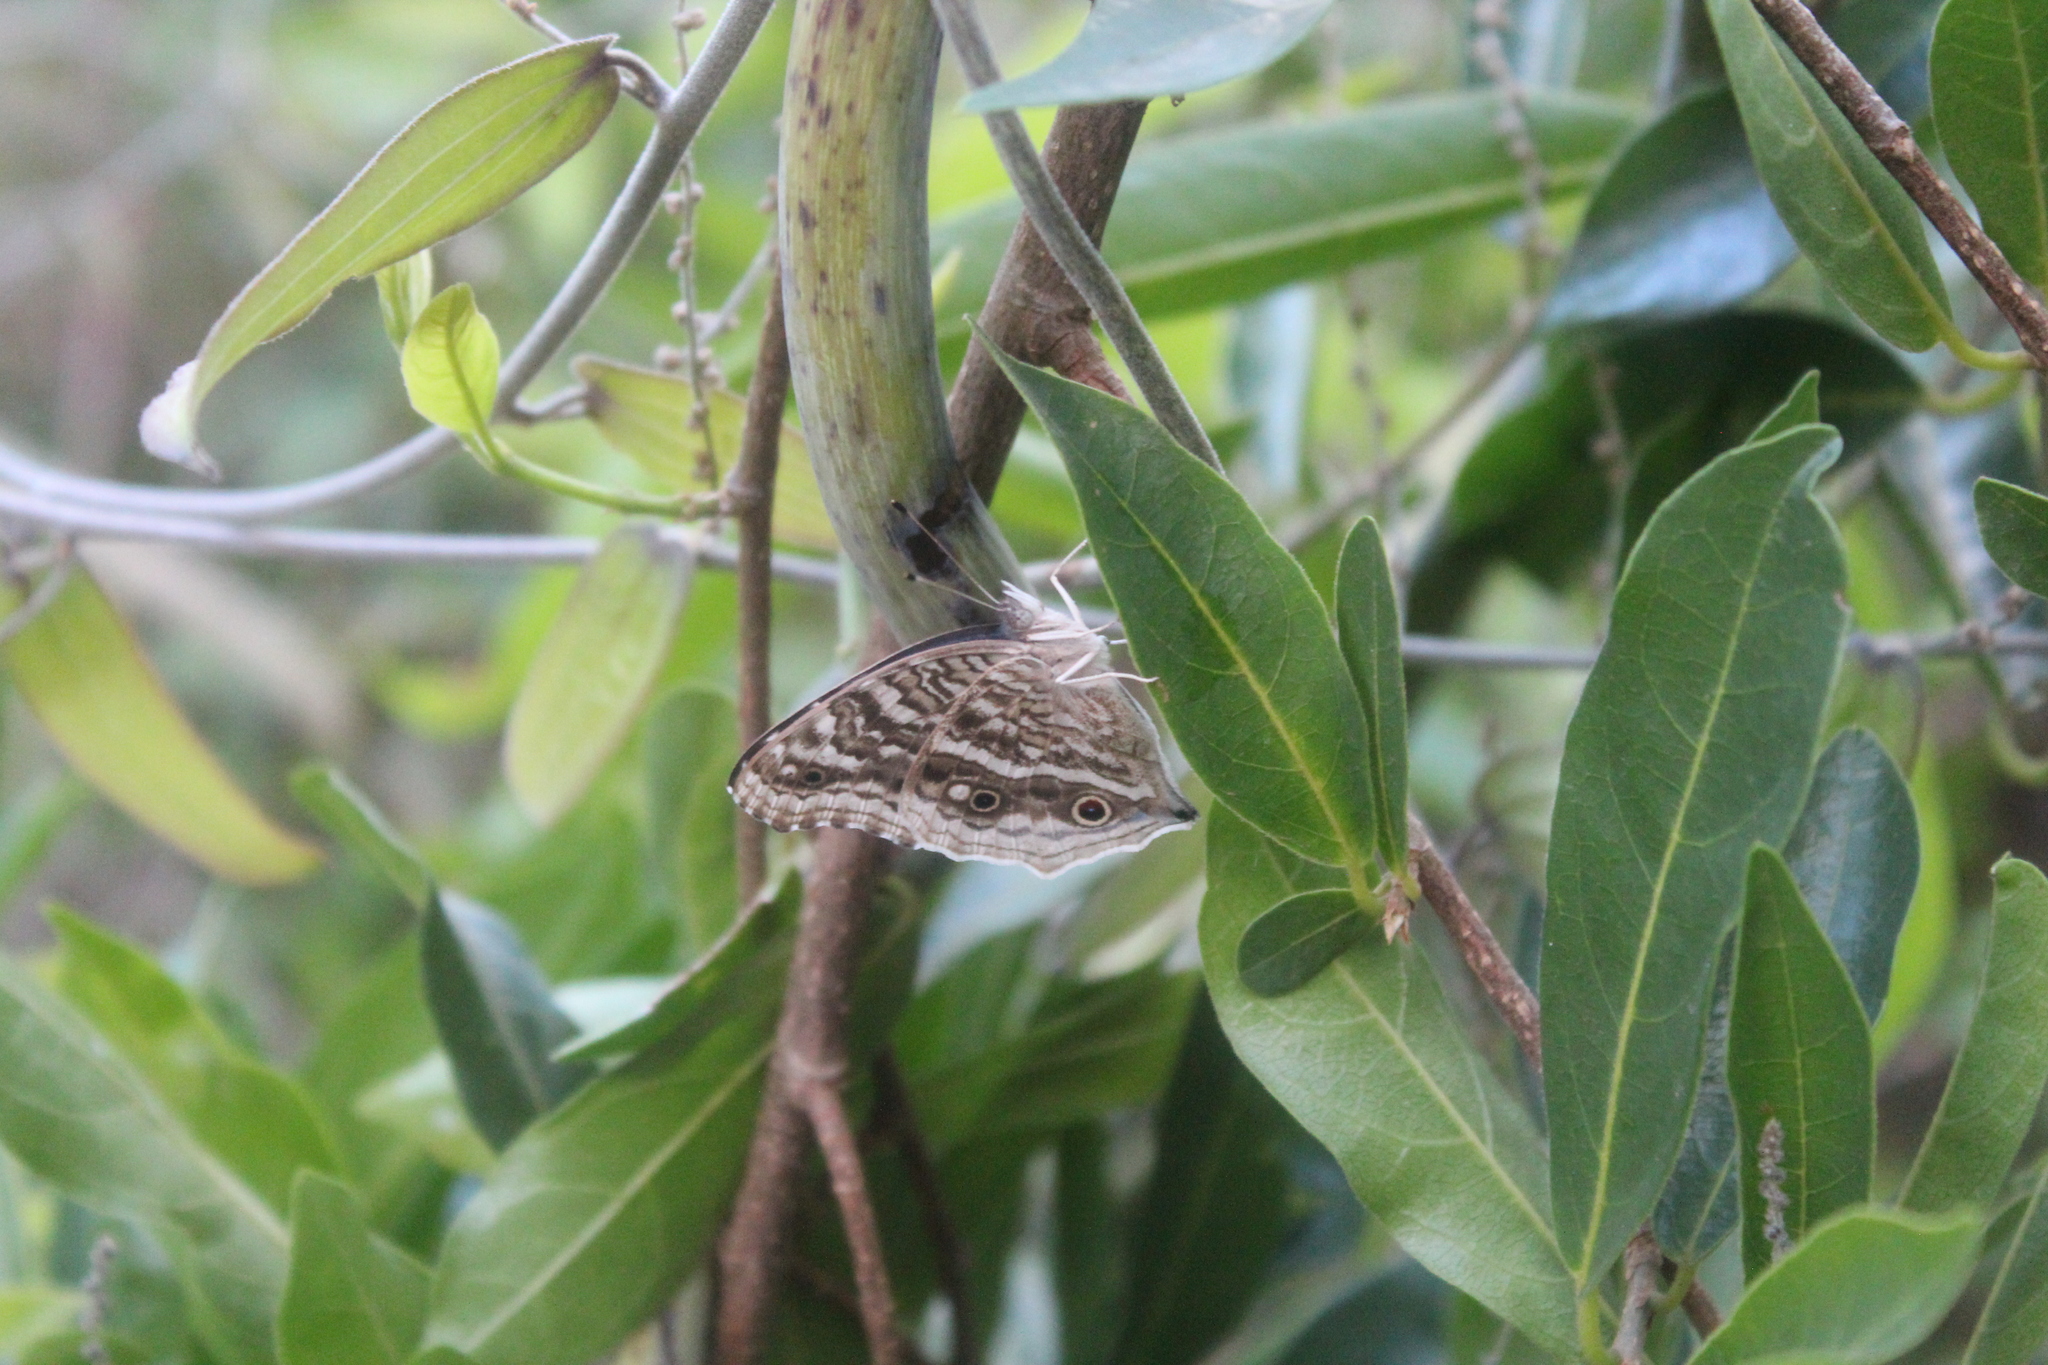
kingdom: Animalia
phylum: Arthropoda
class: Insecta
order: Lepidoptera
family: Nymphalidae
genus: Junonia
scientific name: Junonia rhadama
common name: Royal blue pansy
